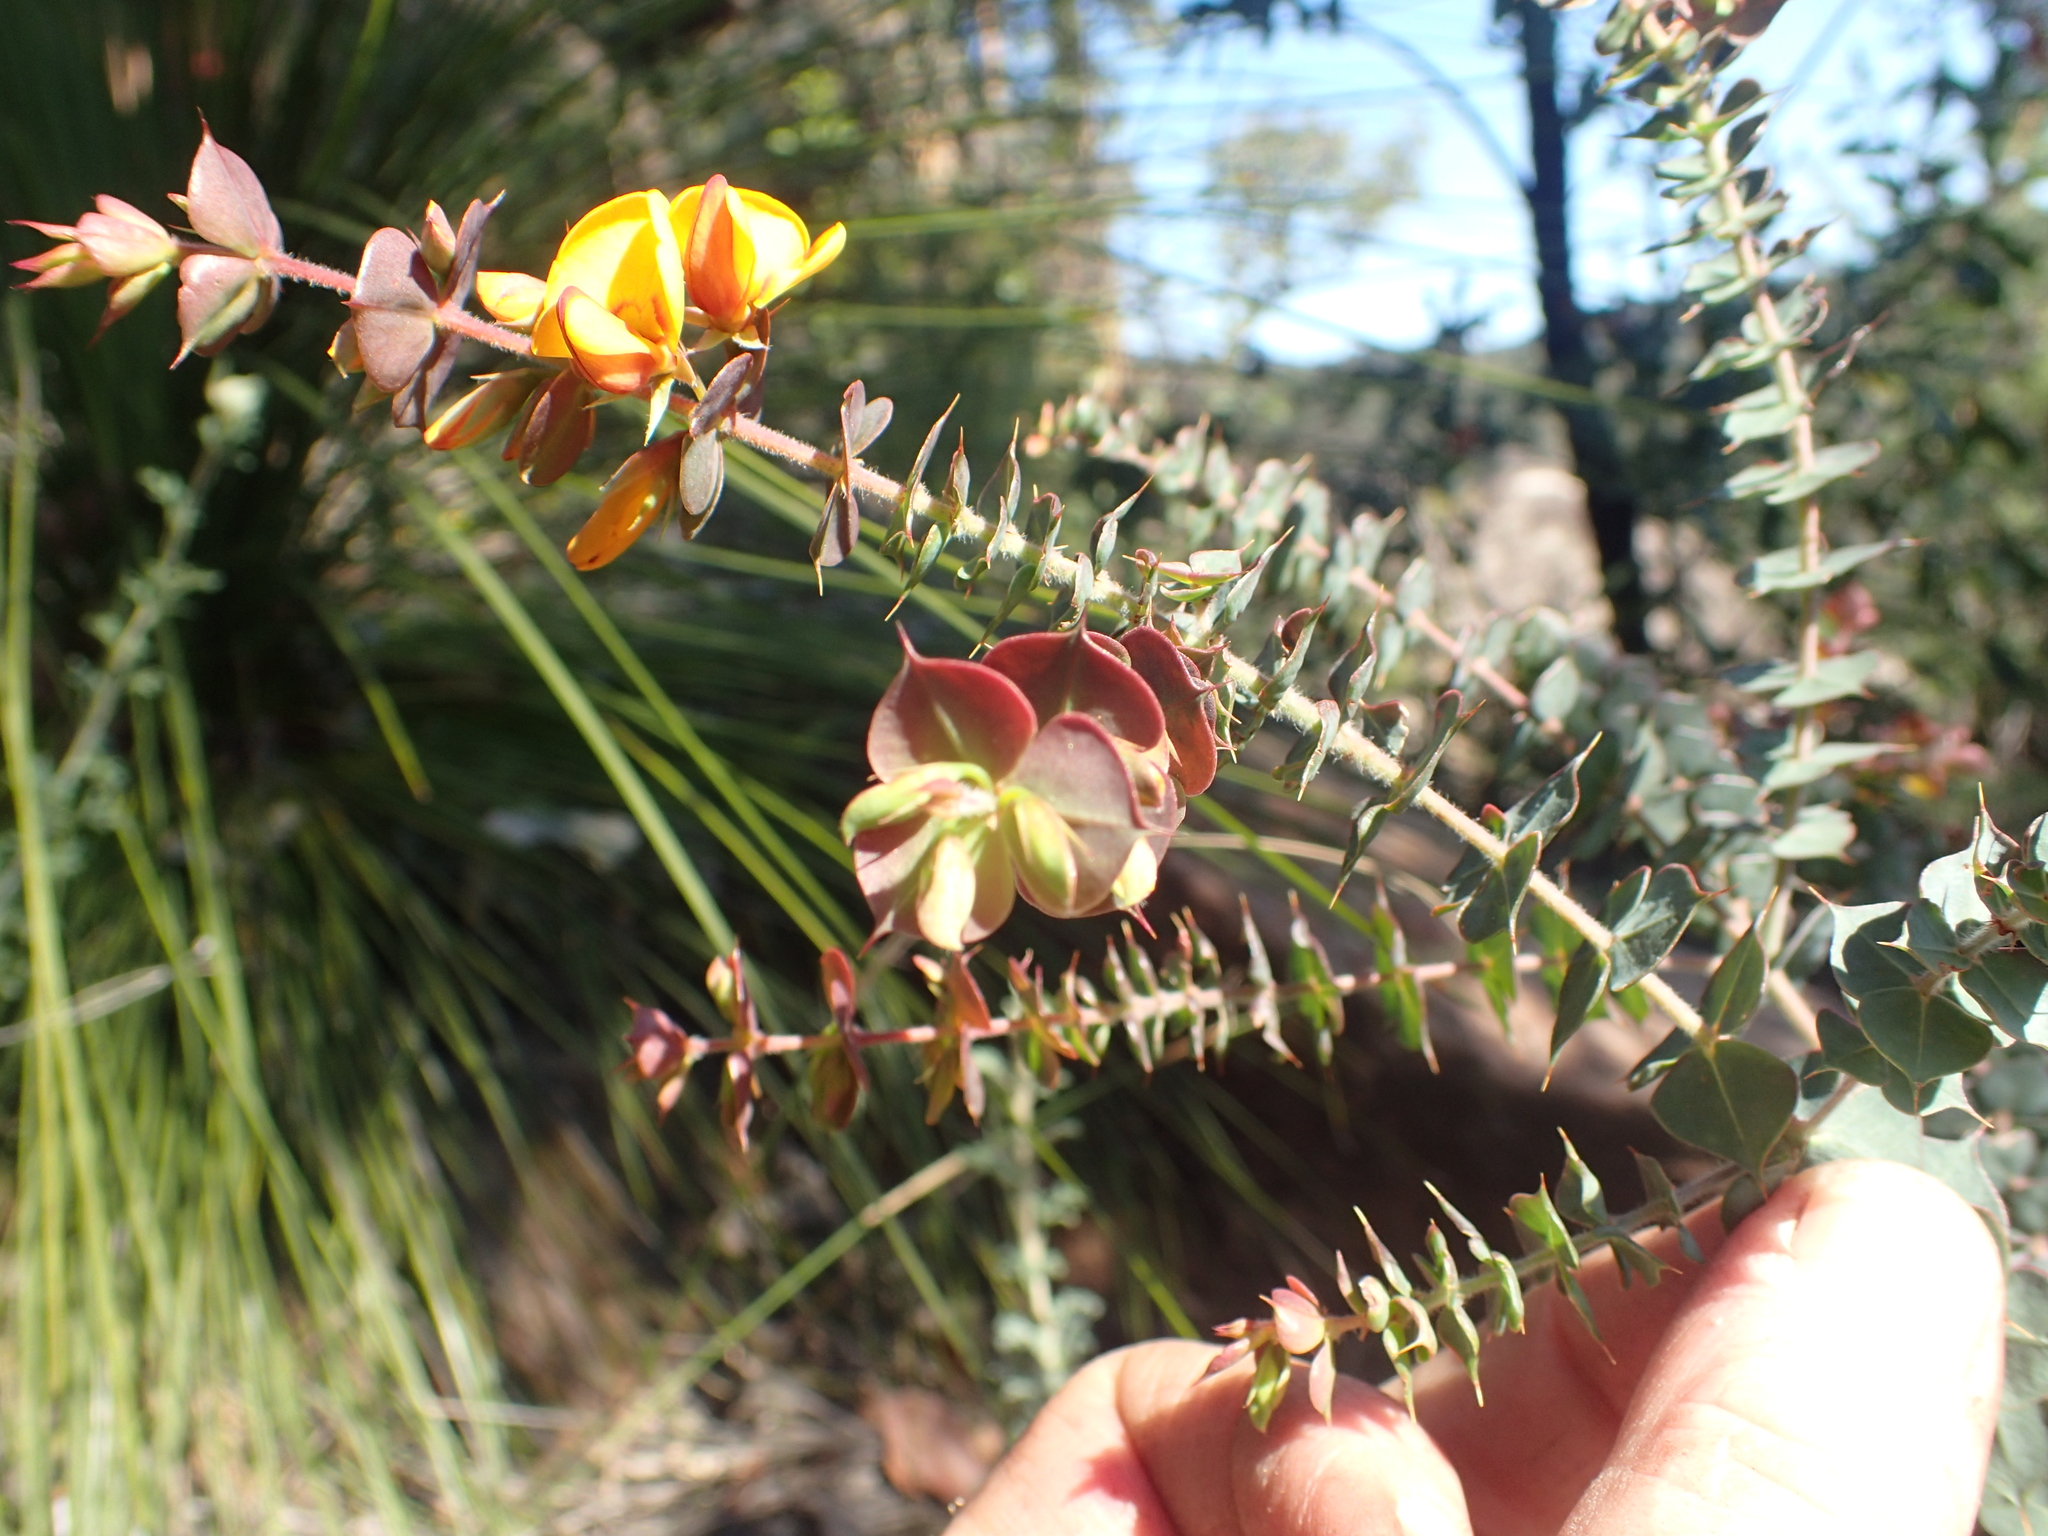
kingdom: Plantae
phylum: Tracheophyta
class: Magnoliopsida
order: Fabales
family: Fabaceae
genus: Pultenaea
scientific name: Pultenaea spinosa
